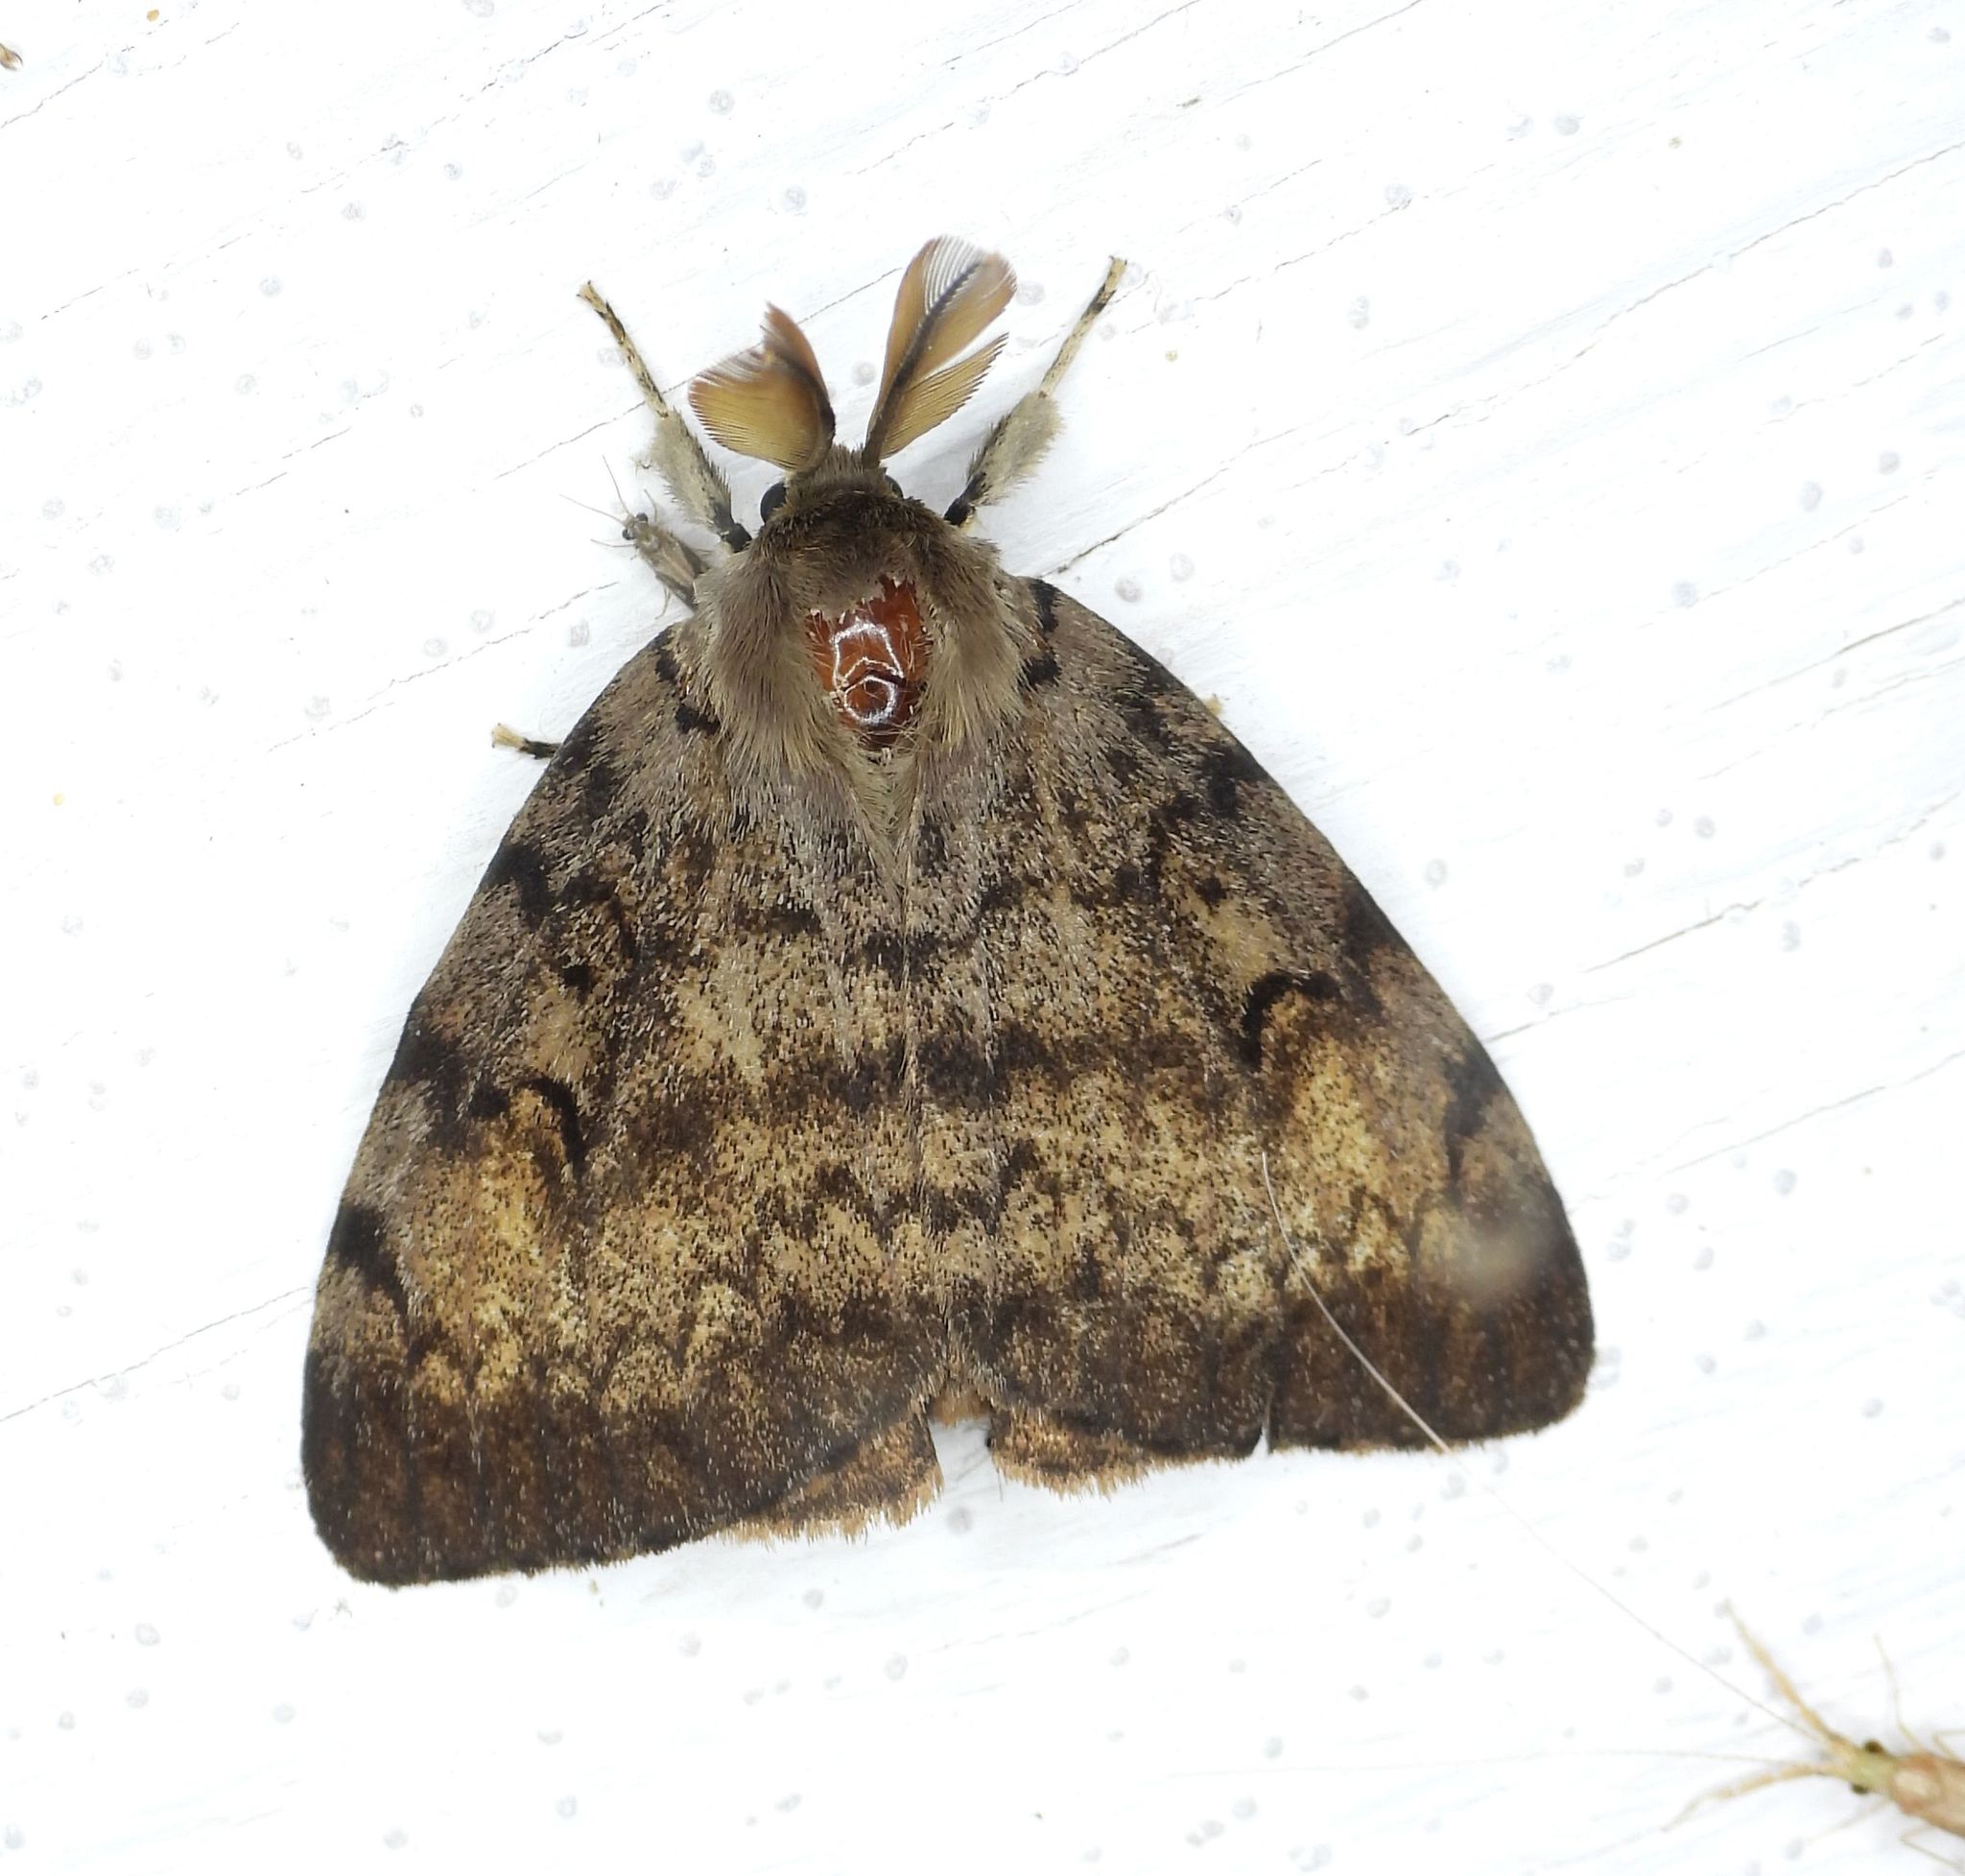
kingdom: Animalia
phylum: Arthropoda
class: Insecta
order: Lepidoptera
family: Erebidae
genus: Lymantria
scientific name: Lymantria dispar
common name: Gypsy moth
